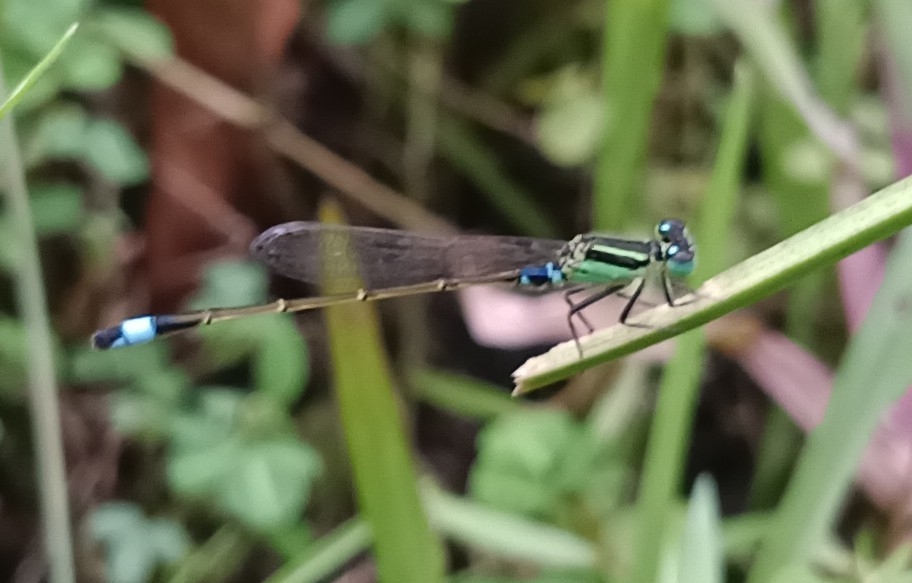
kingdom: Animalia
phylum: Arthropoda
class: Insecta
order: Odonata
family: Coenagrionidae
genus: Ischnura
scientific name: Ischnura senegalensis
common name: Tropical bluetail
